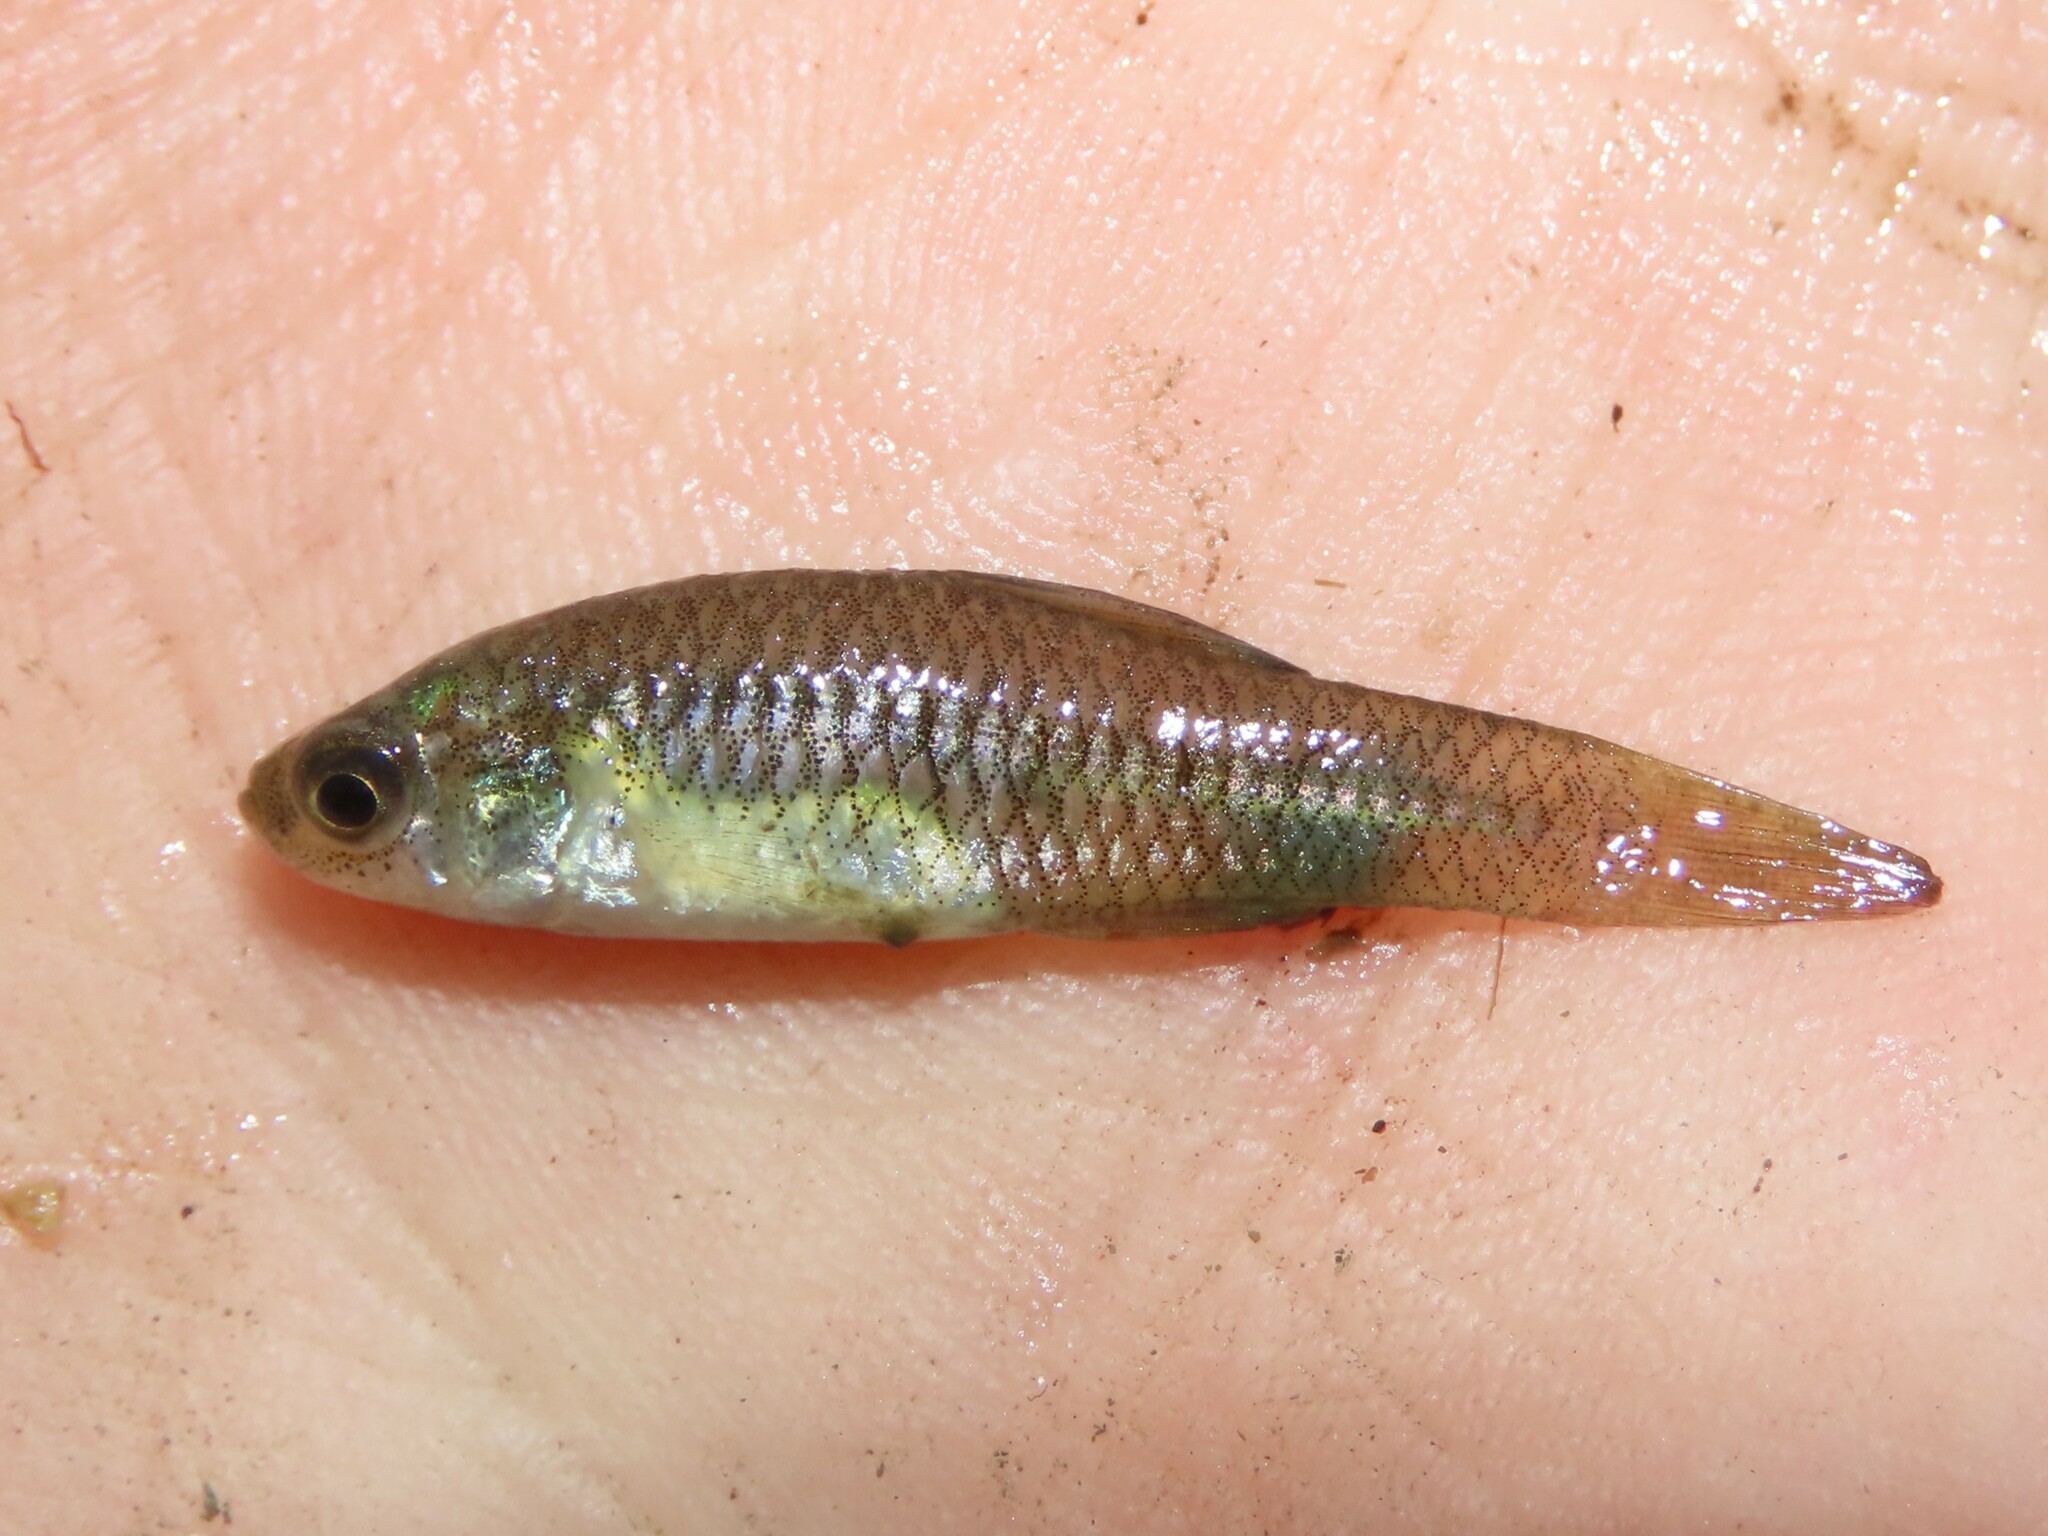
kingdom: Animalia
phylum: Chordata
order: Cyprinodontiformes
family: Fundulidae
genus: Lucania
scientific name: Lucania parva
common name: Rainwater killifish
